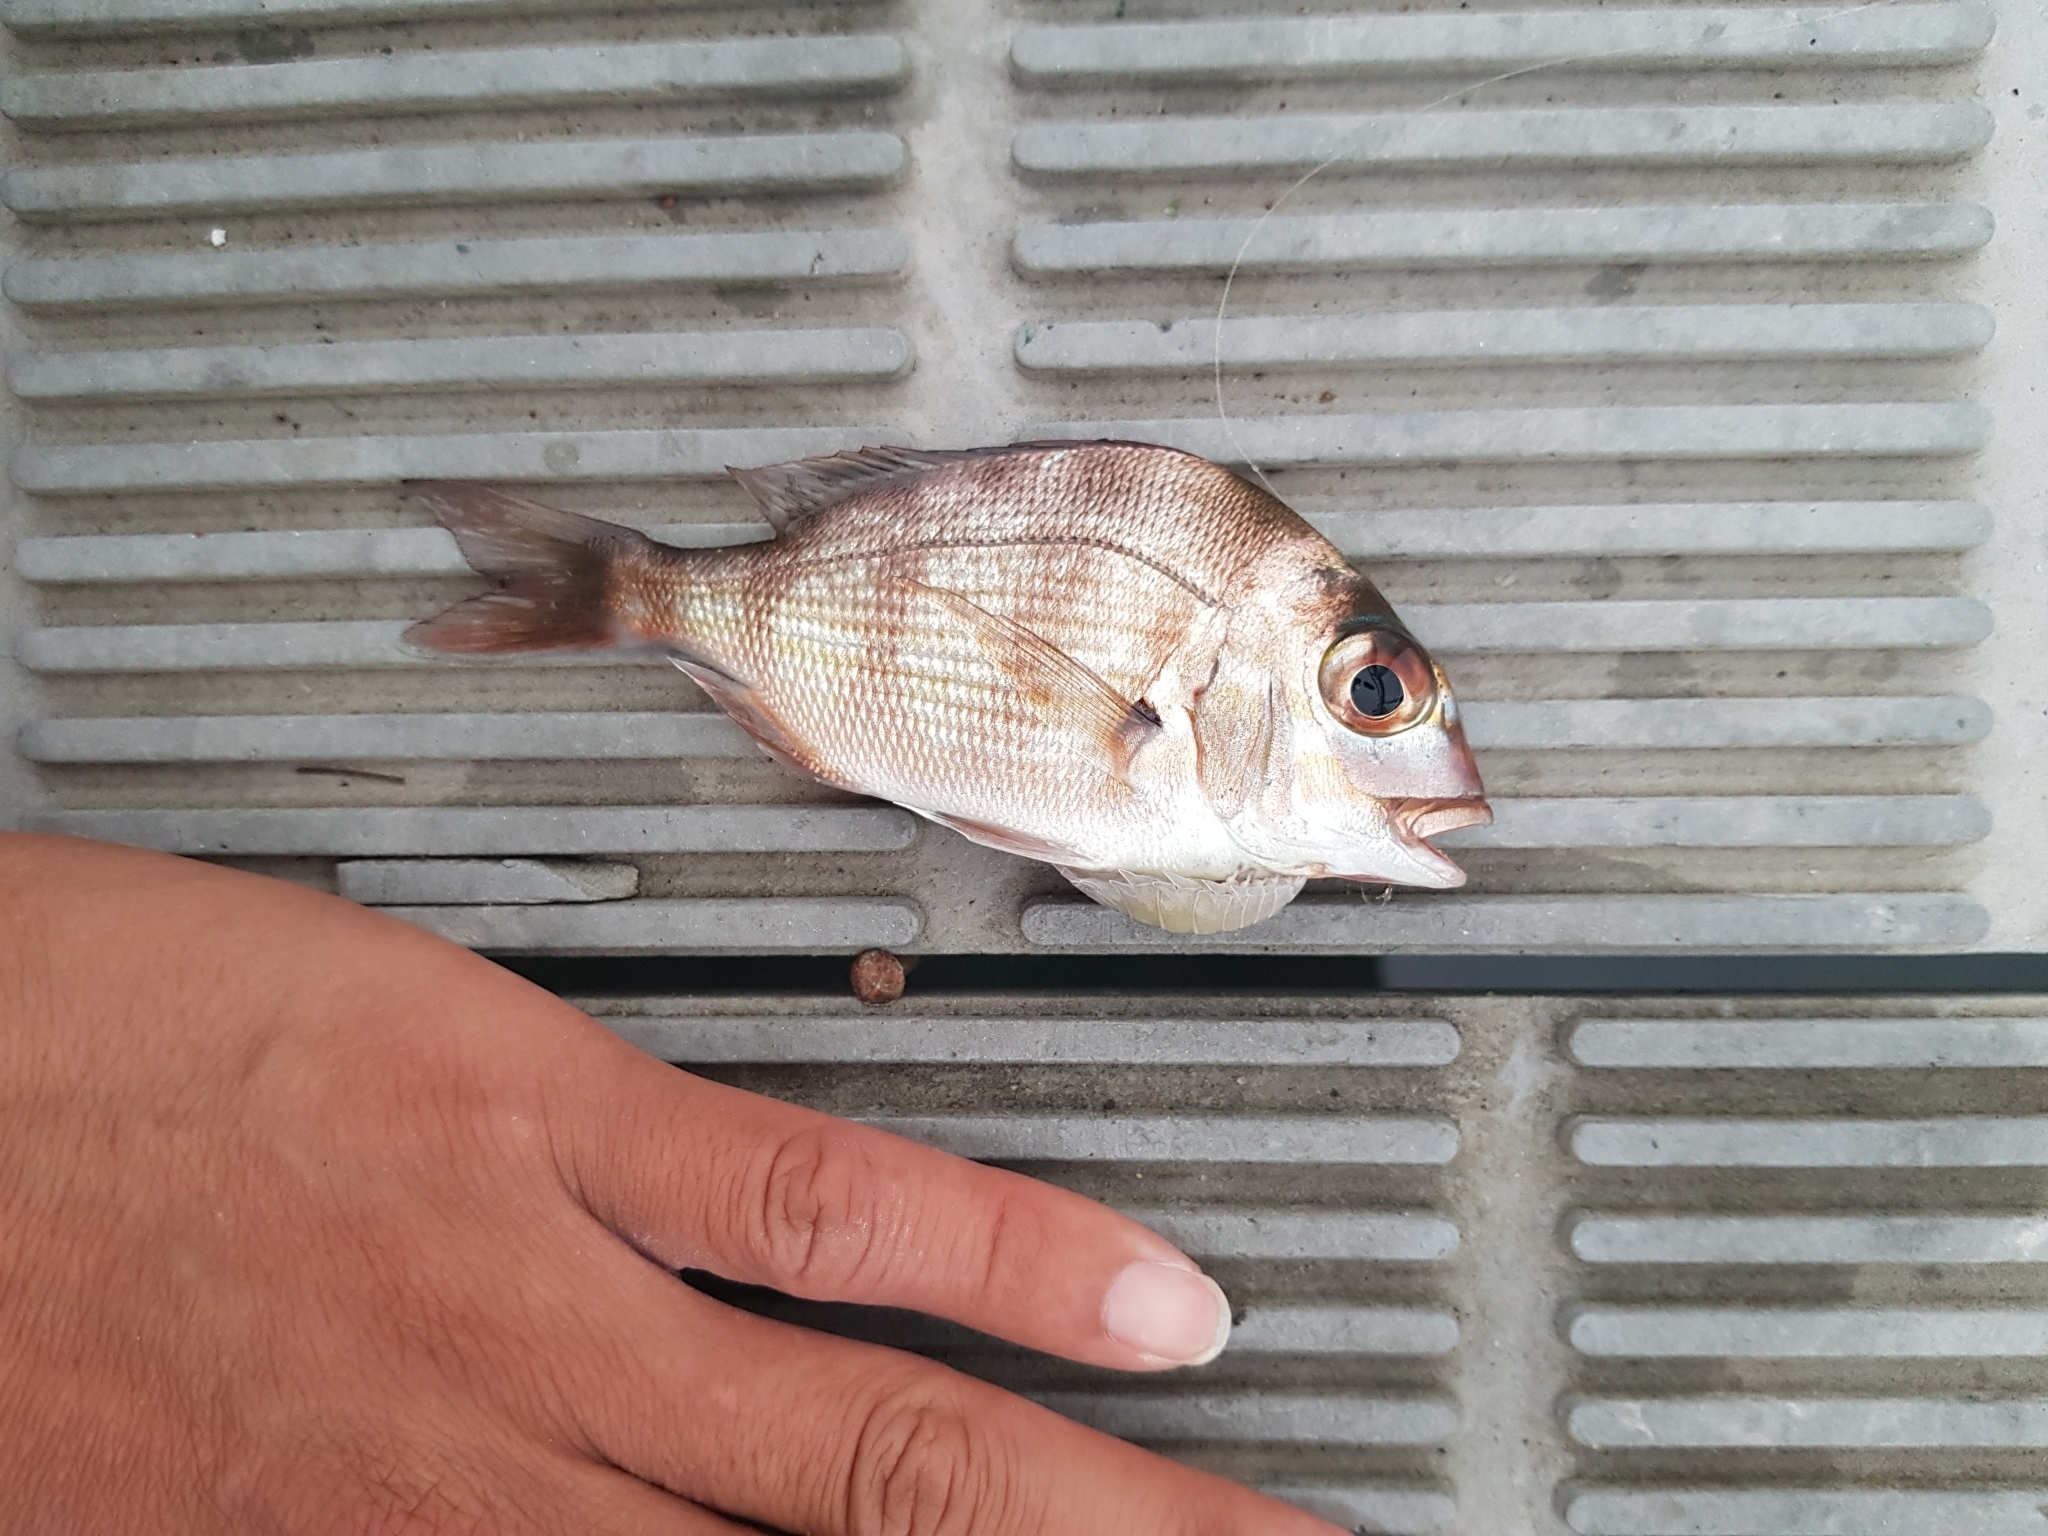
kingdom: Animalia
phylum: Chordata
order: Perciformes
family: Sparidae
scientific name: Sparidae
